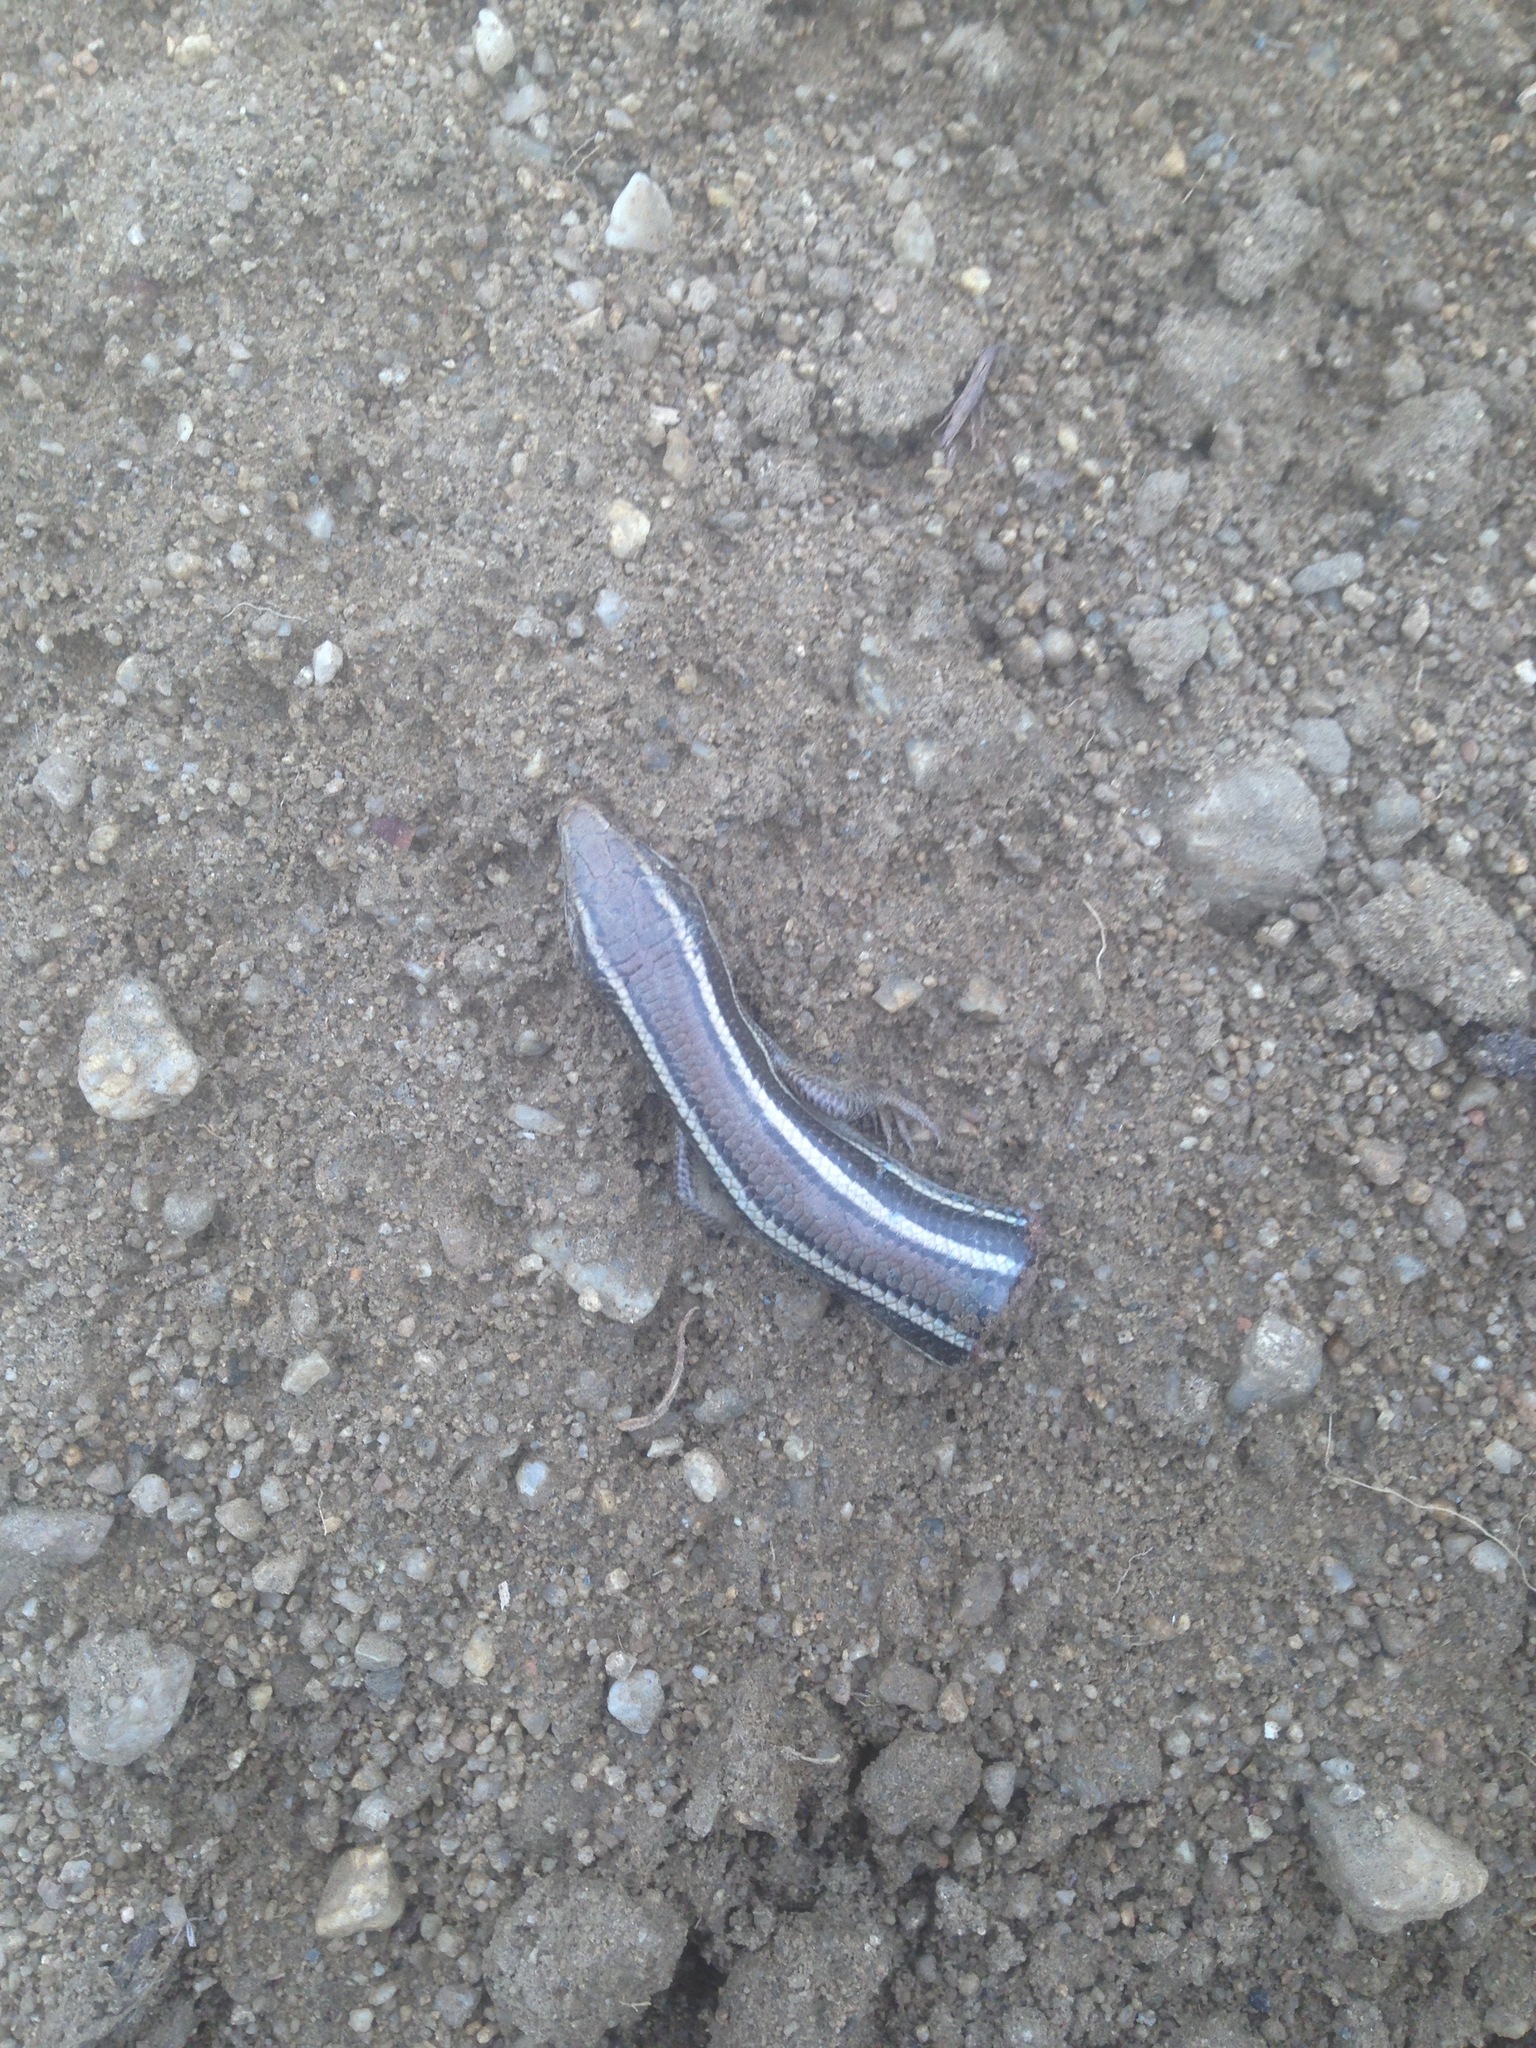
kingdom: Animalia
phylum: Chordata
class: Squamata
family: Scincidae
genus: Plestiodon
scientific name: Plestiodon skiltonianus
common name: Coronado island skink [interparietalis]
